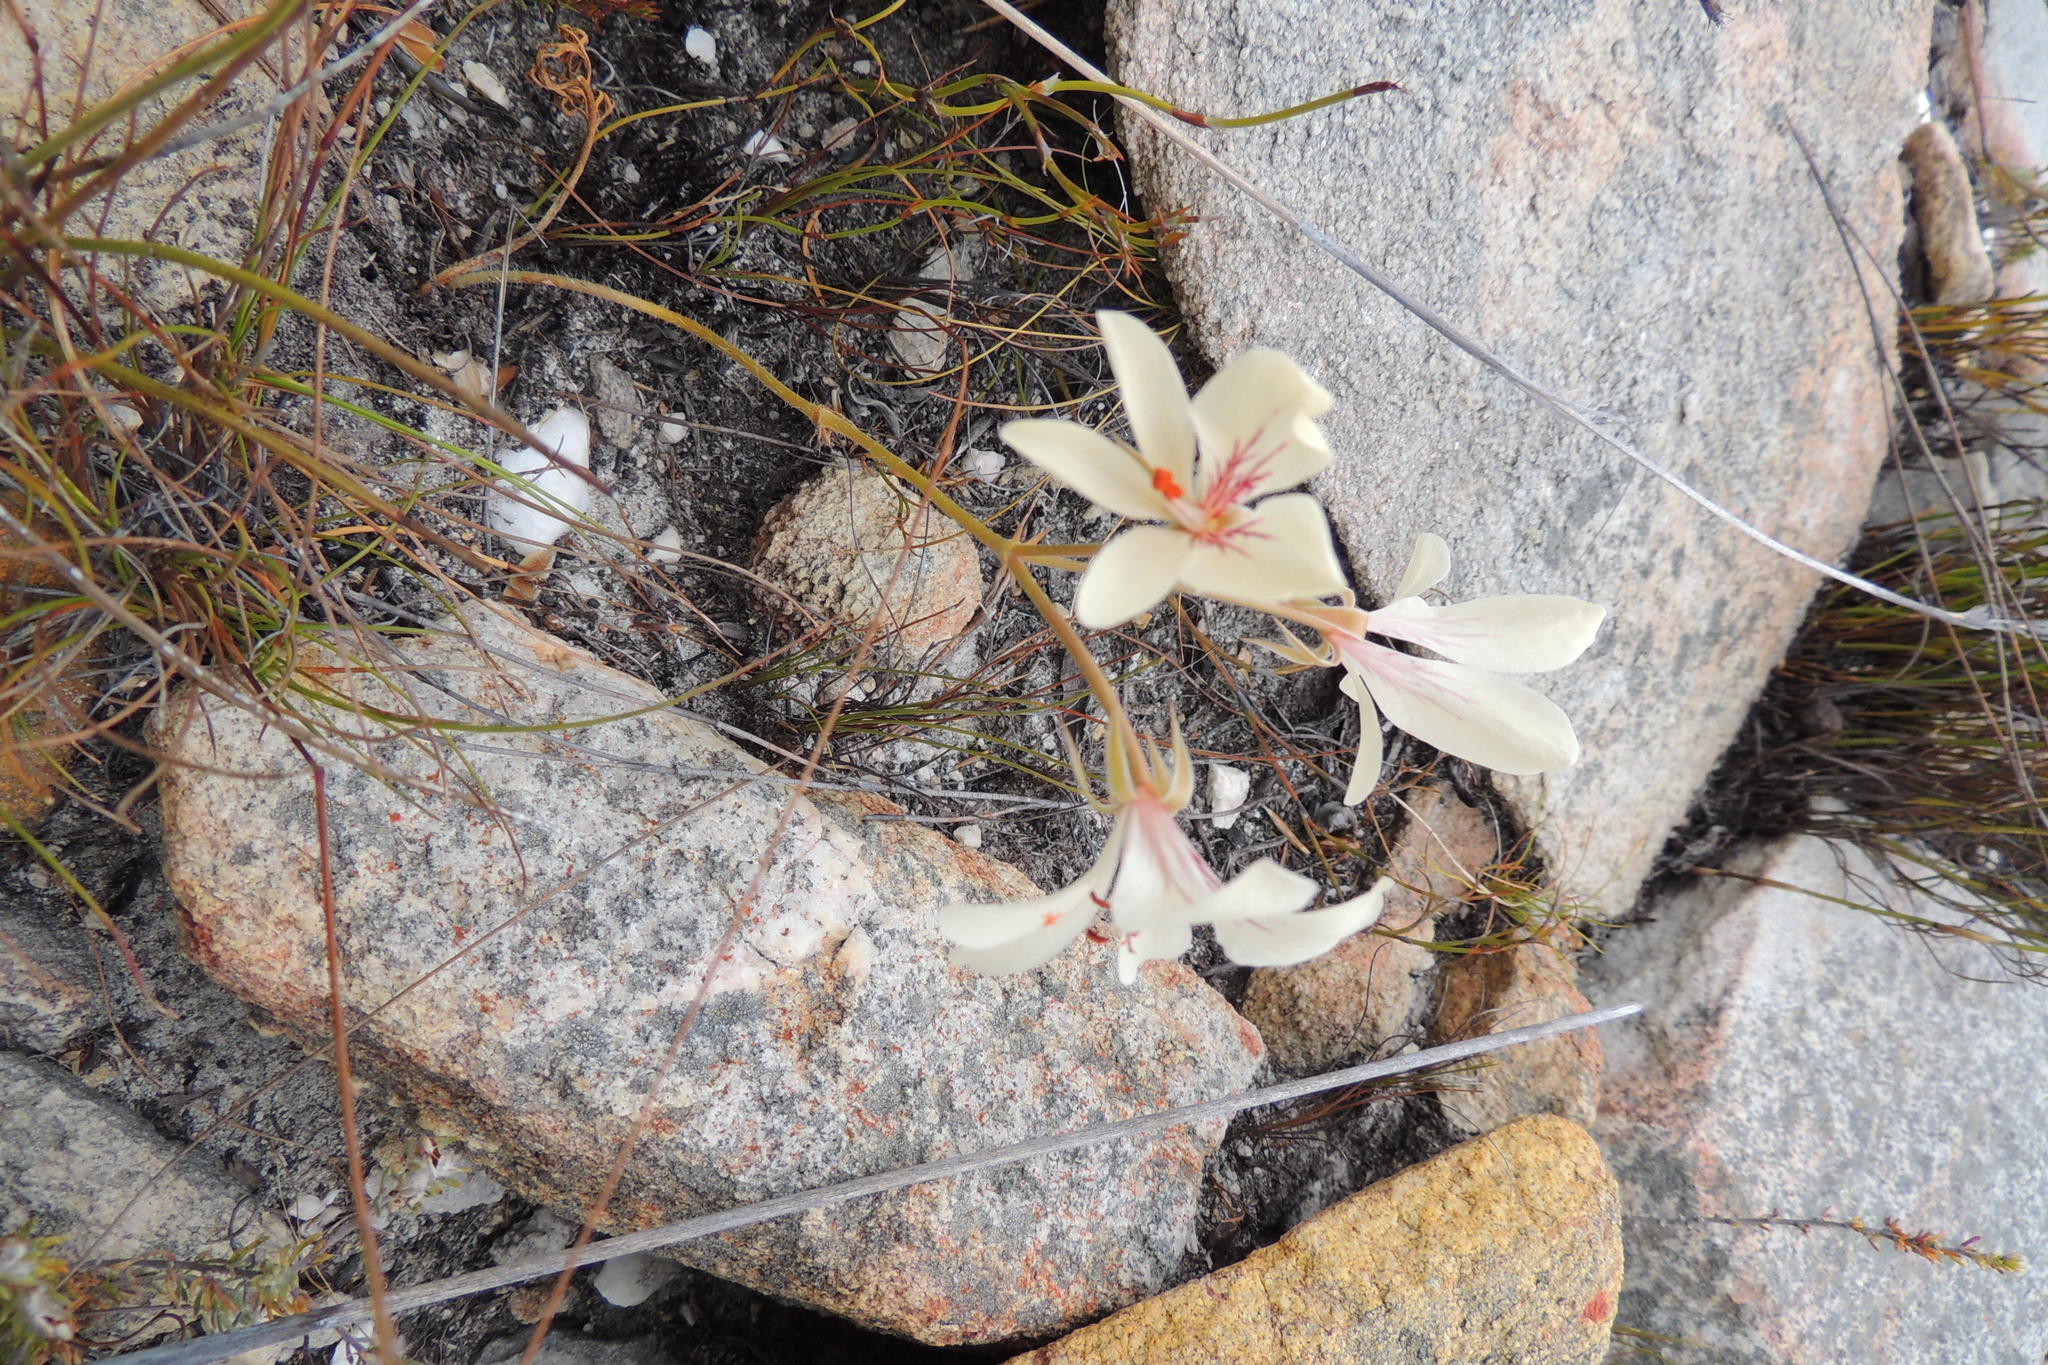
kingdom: Plantae
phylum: Tracheophyta
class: Magnoliopsida
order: Geraniales
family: Geraniaceae
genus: Pelargonium
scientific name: Pelargonium carneum
